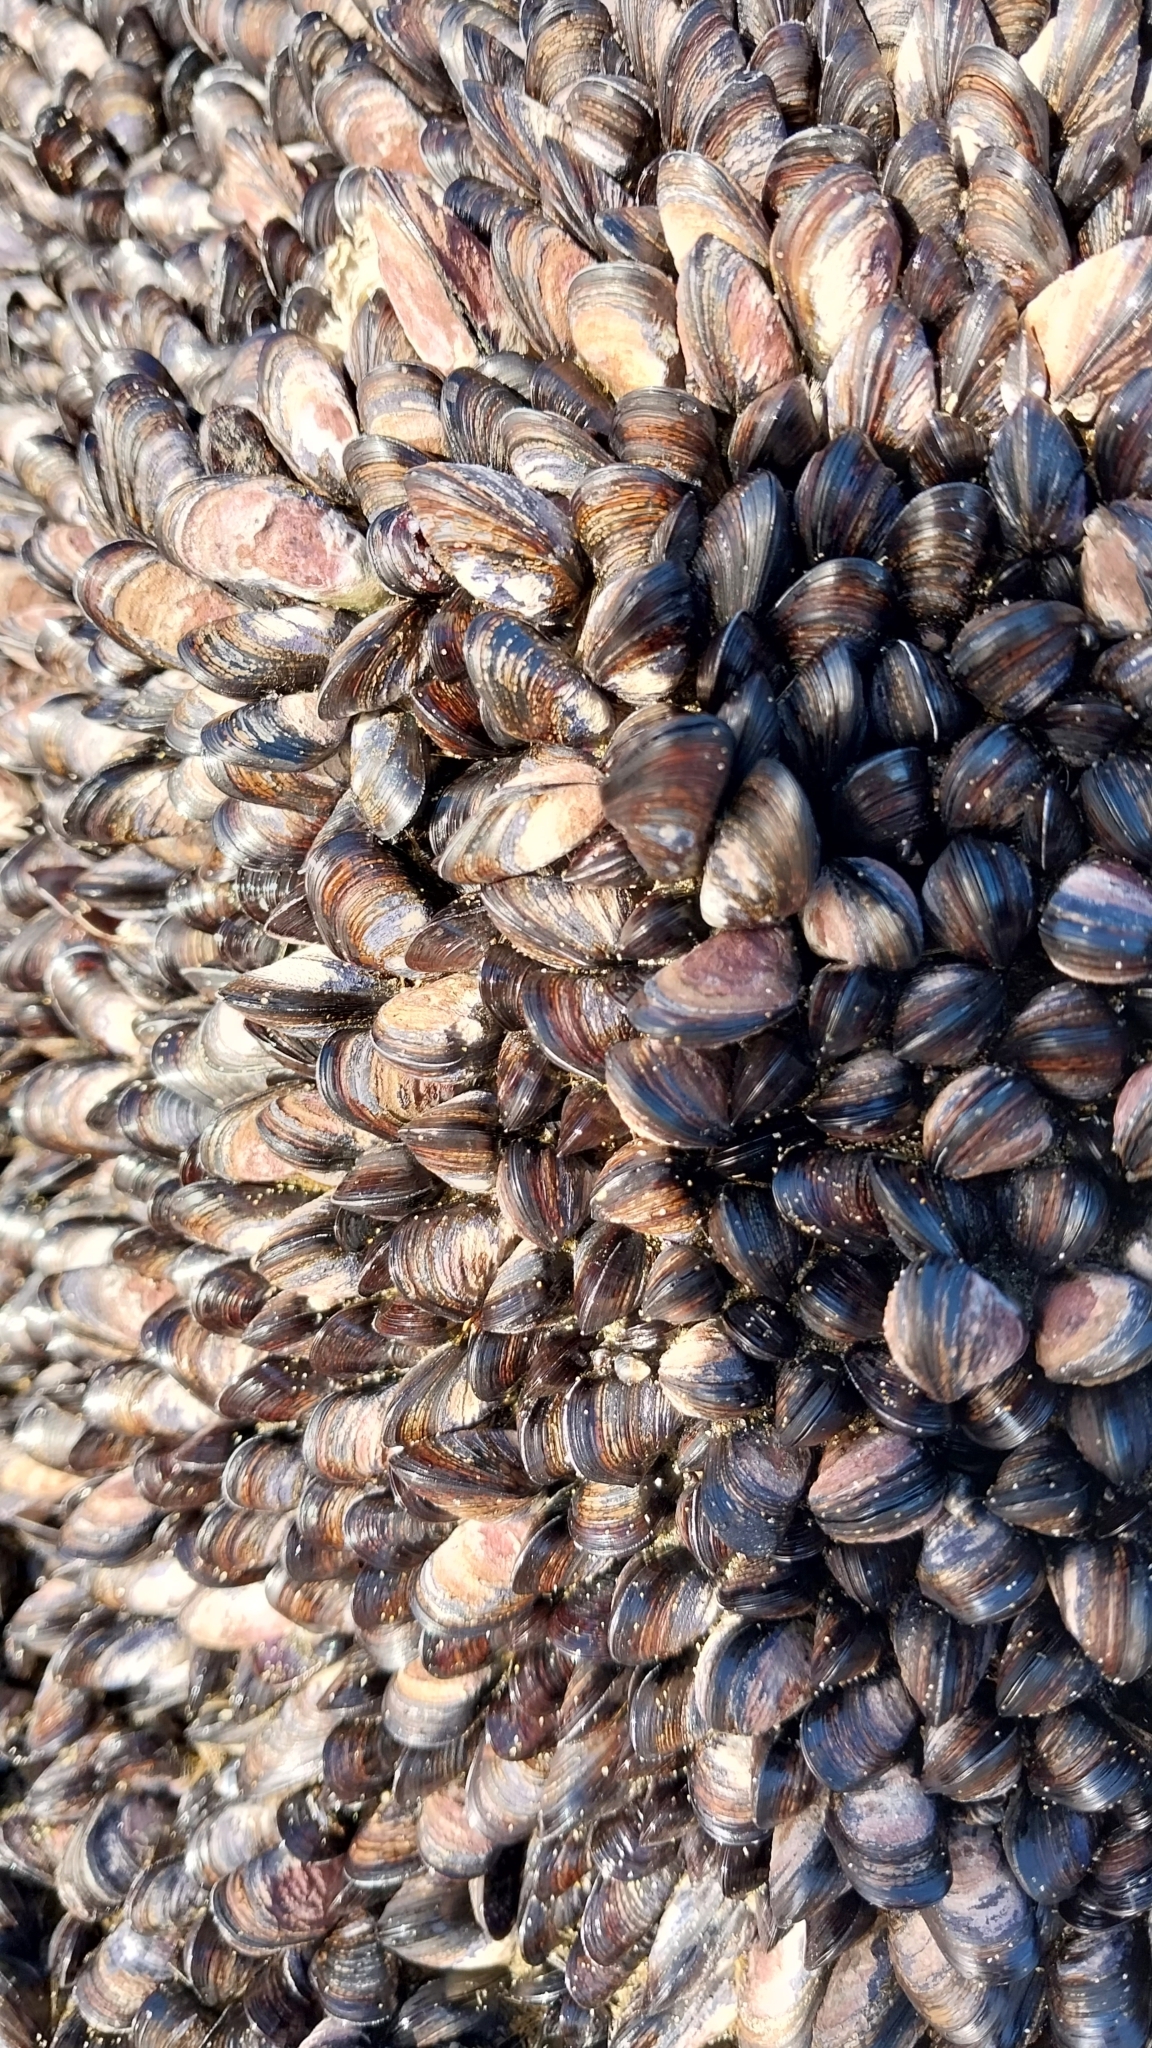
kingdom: Animalia
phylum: Mollusca
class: Bivalvia
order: Mytilida
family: Mytilidae
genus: Xenostrobus
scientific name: Xenostrobus neozelanicus
